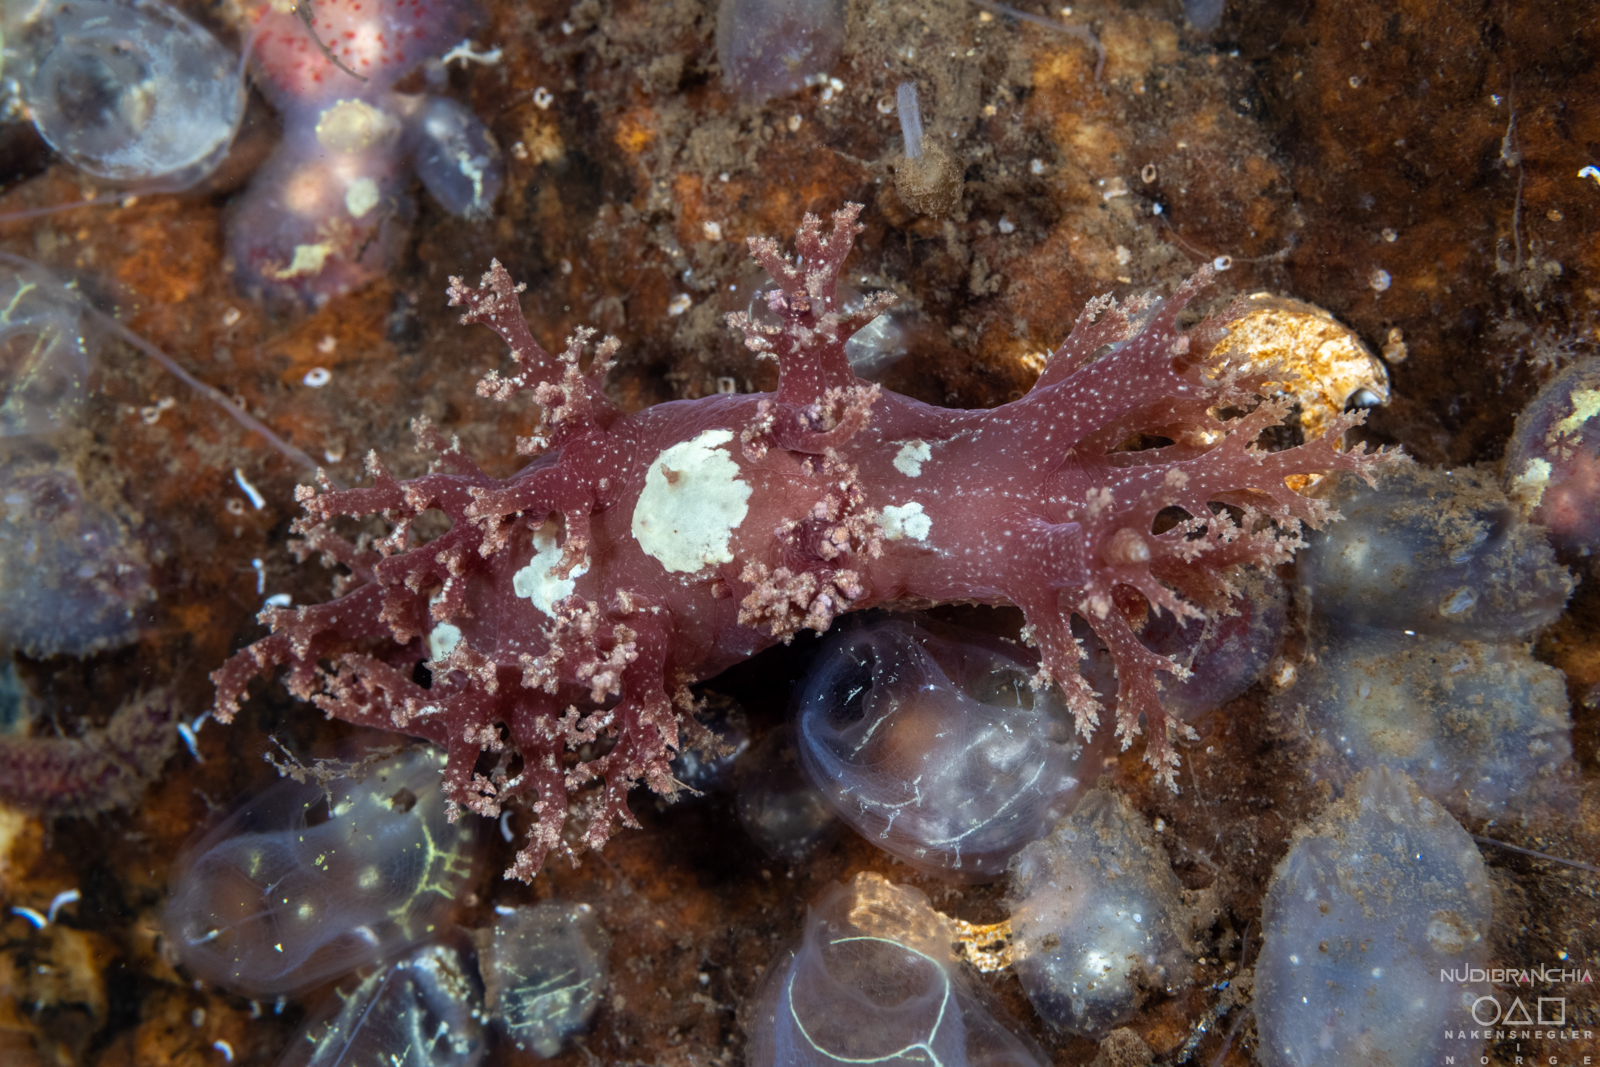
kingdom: Animalia
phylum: Mollusca
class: Gastropoda
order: Nudibranchia
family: Dendronotidae
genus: Dendronotus
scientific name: Dendronotus lacteus
